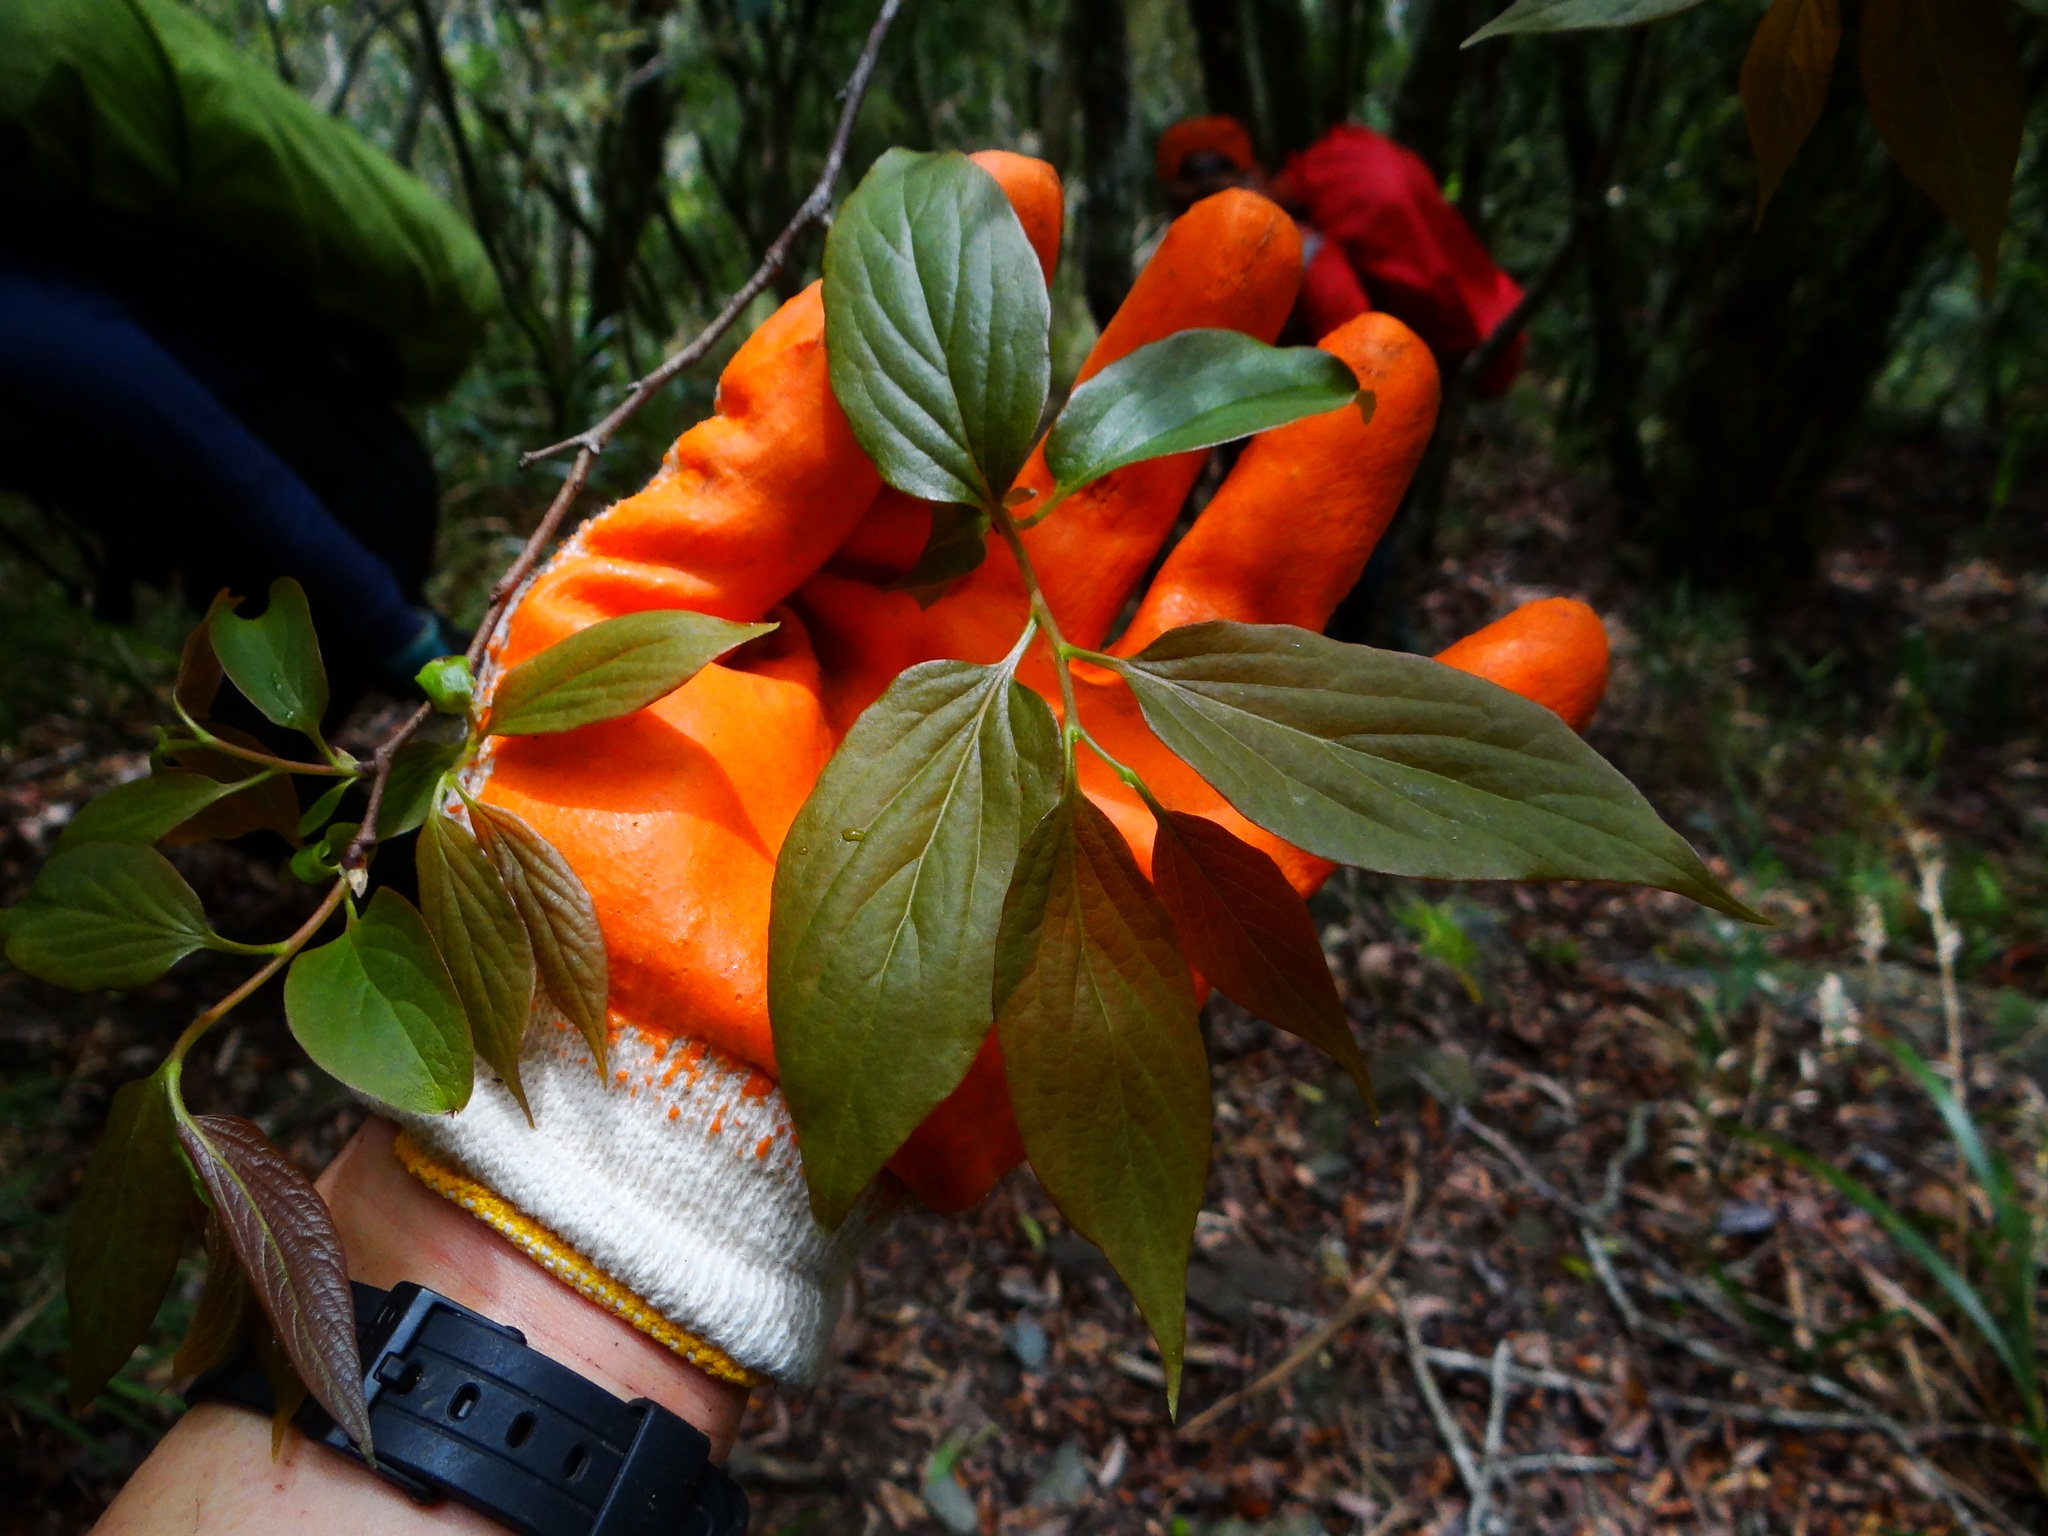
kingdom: Plantae
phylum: Tracheophyta
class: Magnoliopsida
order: Ericales
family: Ebenaceae
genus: Diospyros
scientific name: Diospyros oldhamii
